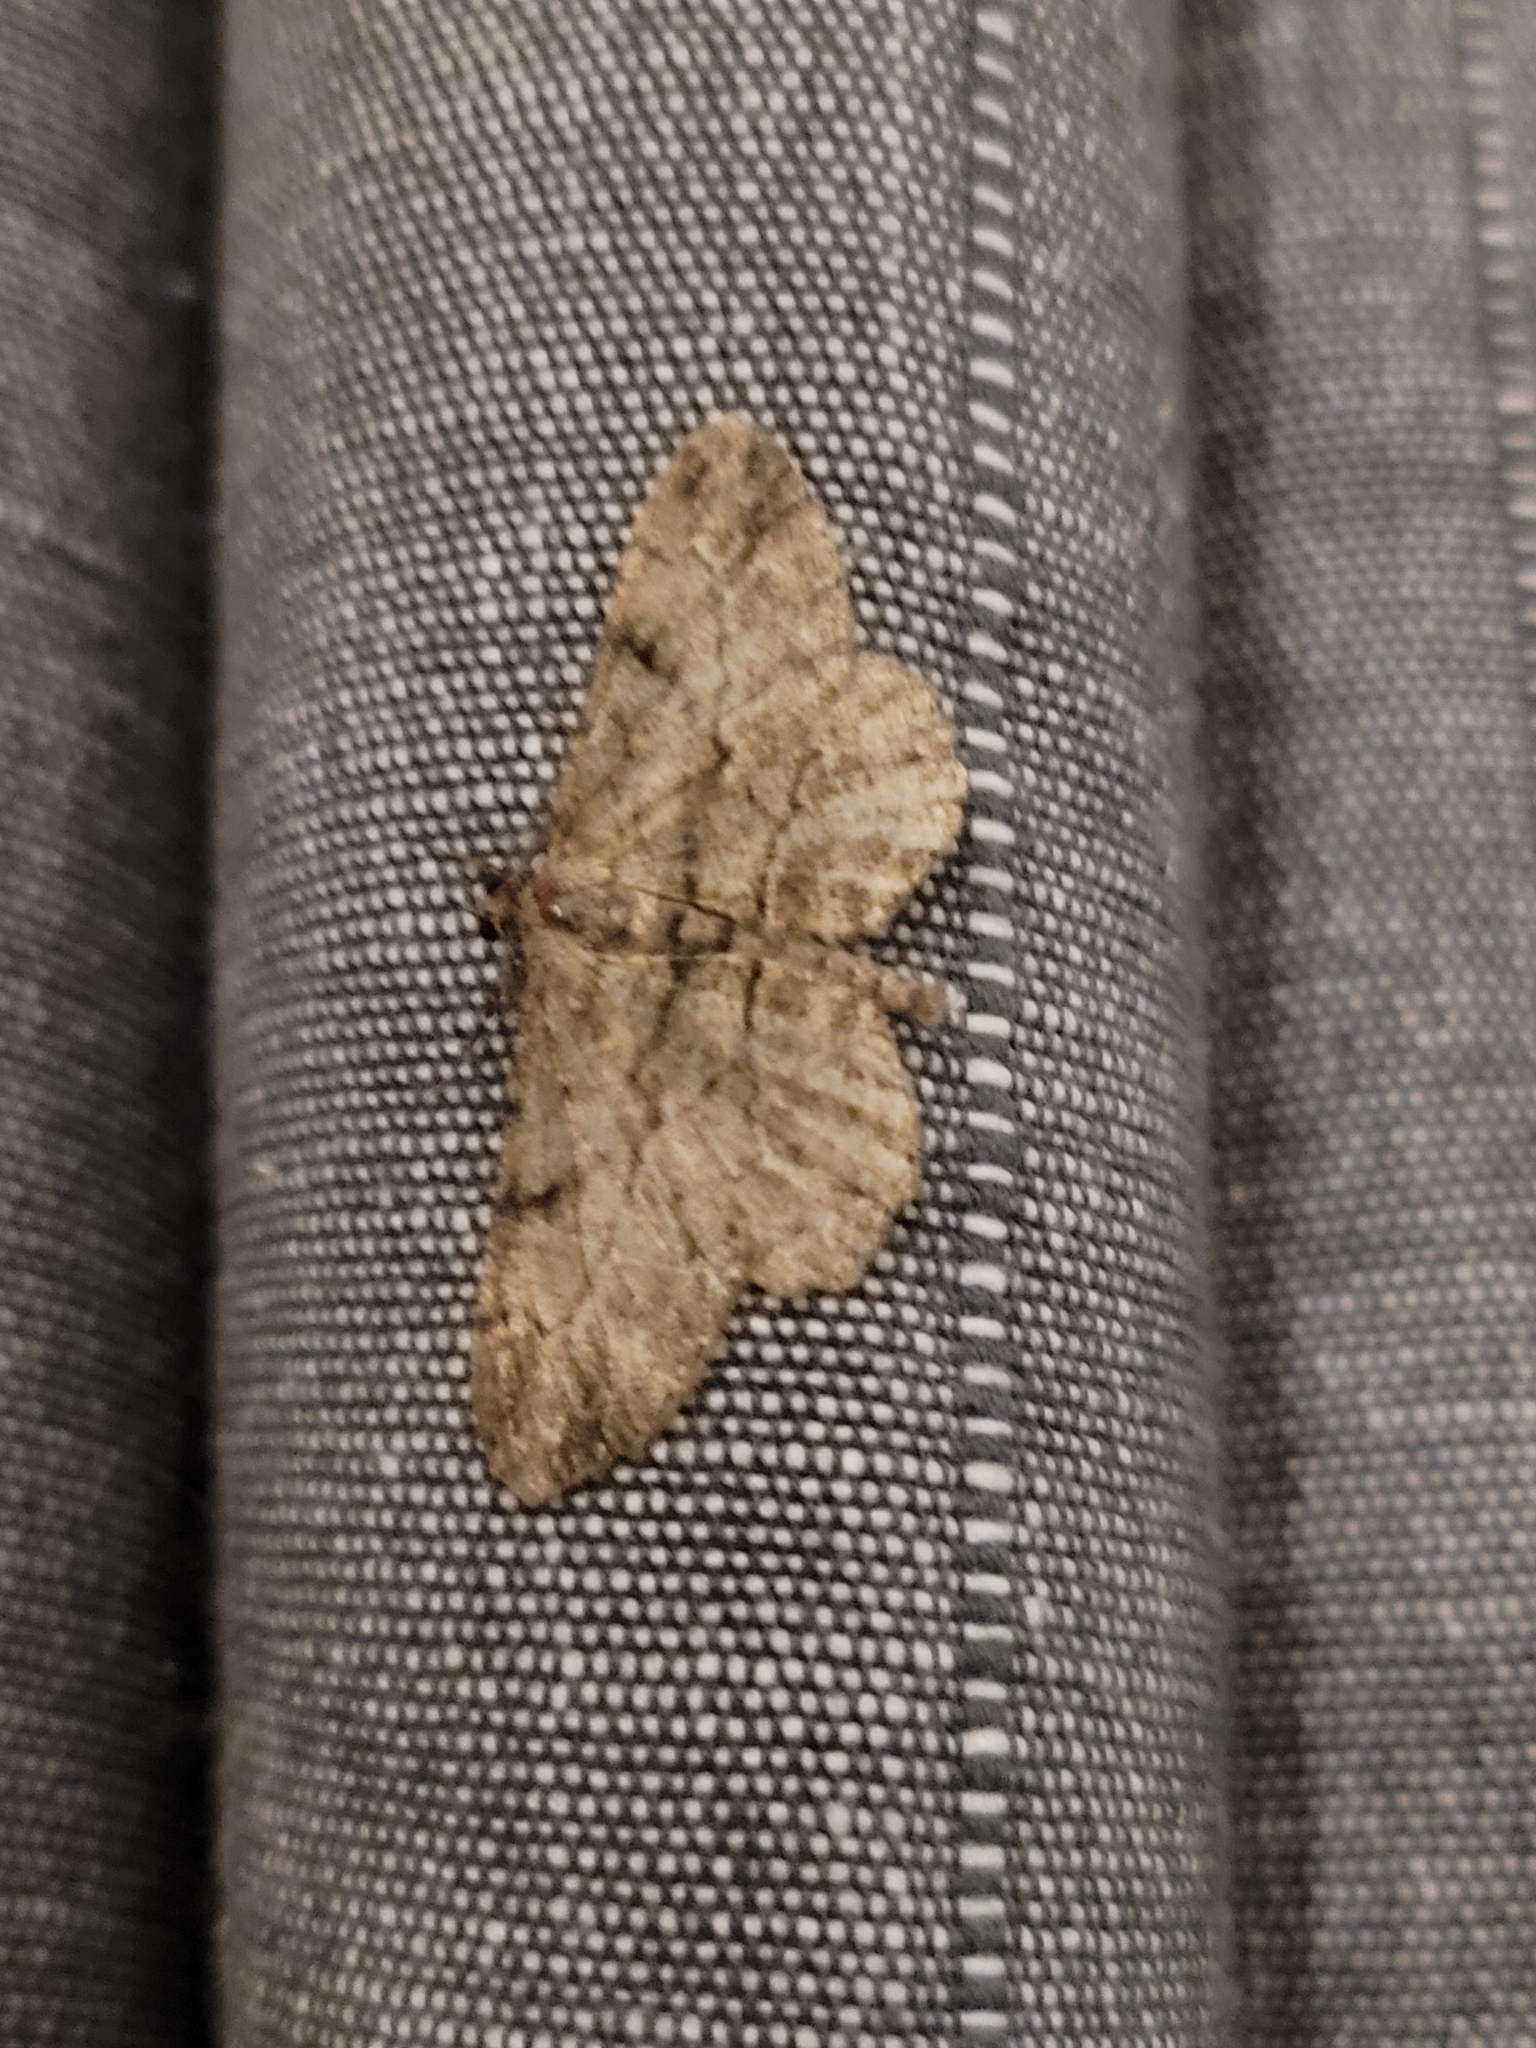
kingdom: Animalia
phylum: Arthropoda
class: Insecta
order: Lepidoptera
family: Geometridae
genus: Peribatodes
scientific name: Peribatodes rhomboidaria
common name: Willow beauty
